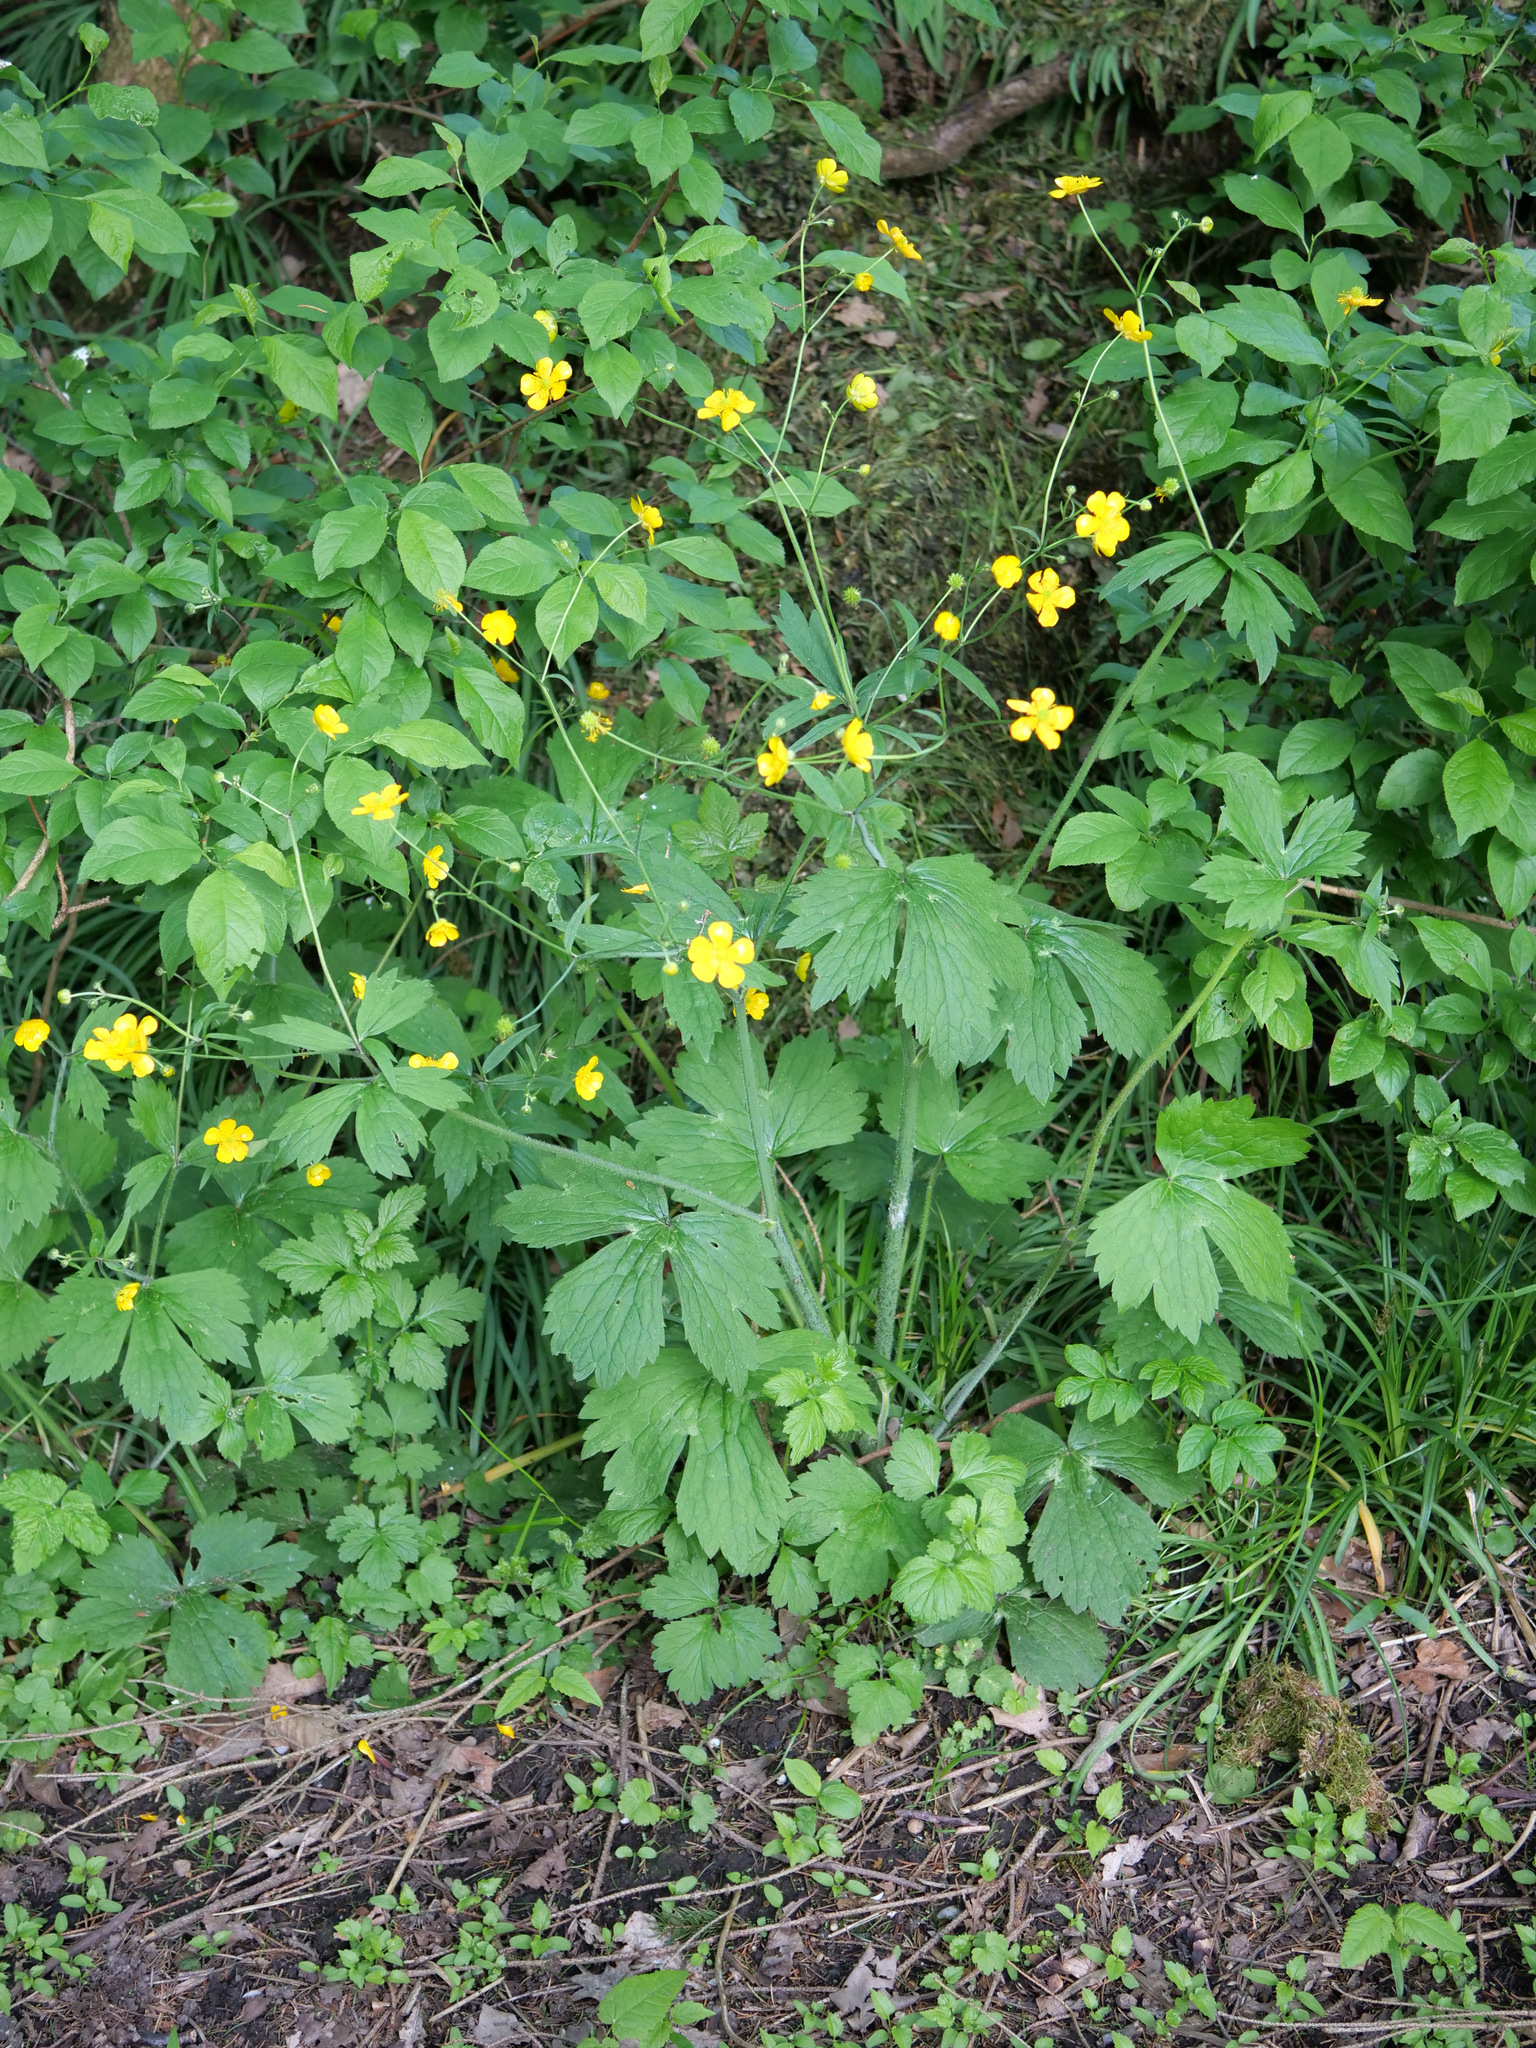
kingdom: Plantae
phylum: Tracheophyta
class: Magnoliopsida
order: Ranunculales
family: Ranunculaceae
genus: Ranunculus
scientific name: Ranunculus lanuginosus
